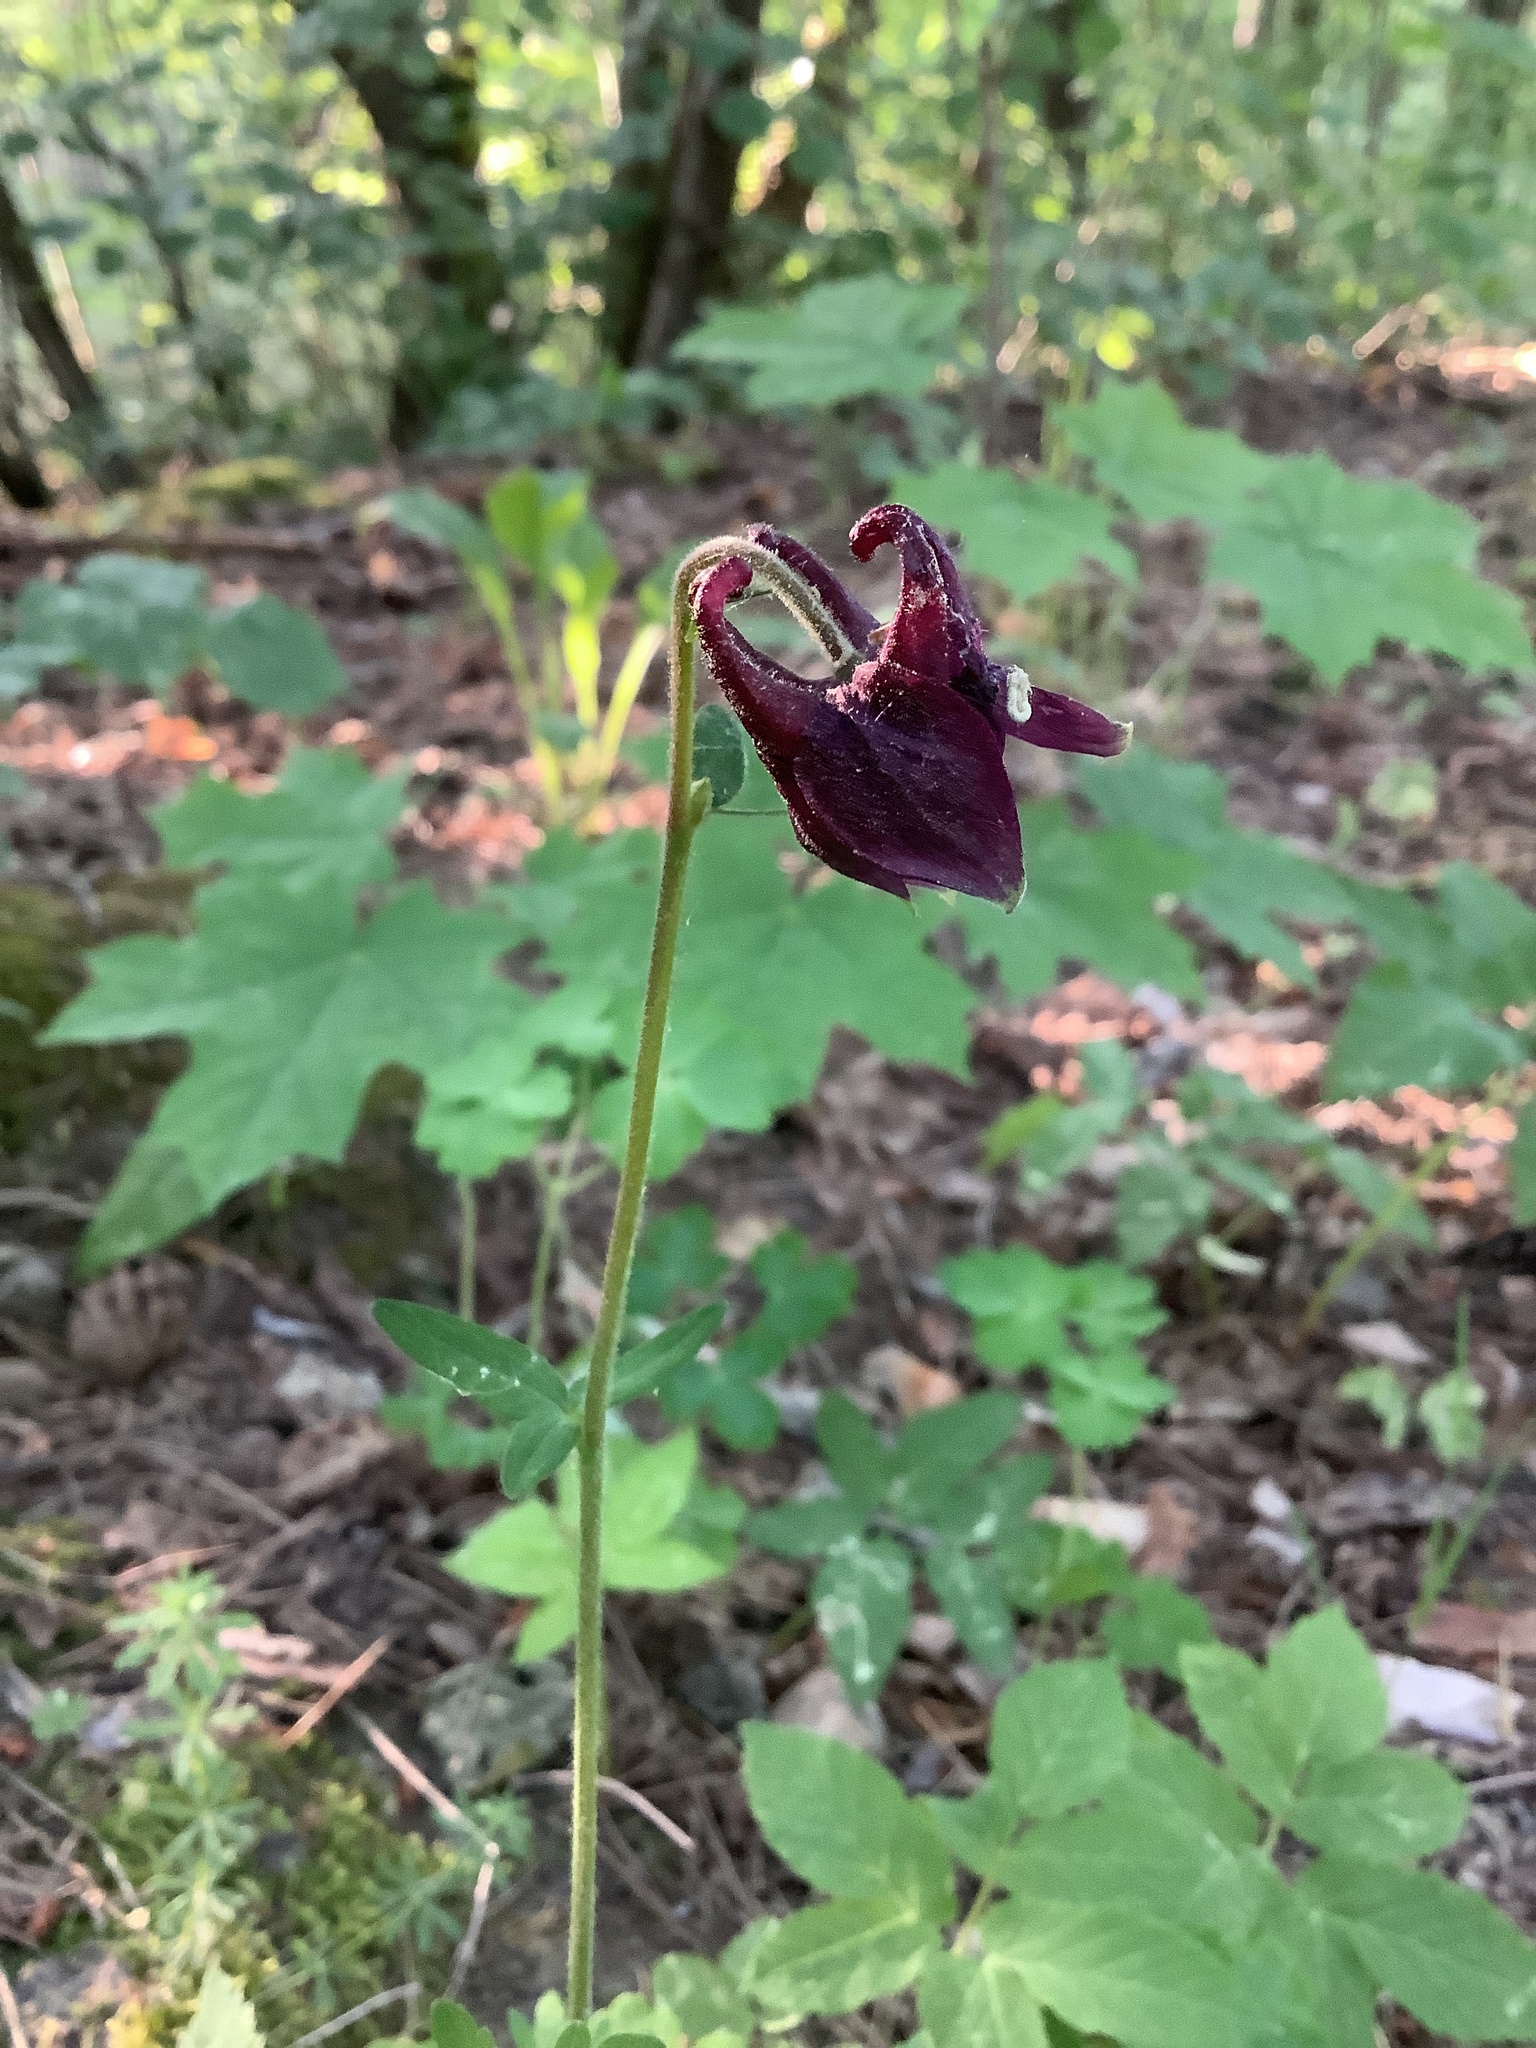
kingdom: Plantae
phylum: Tracheophyta
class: Magnoliopsida
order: Ranunculales
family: Ranunculaceae
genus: Aquilegia
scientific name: Aquilegia atrata
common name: Dark columbine
